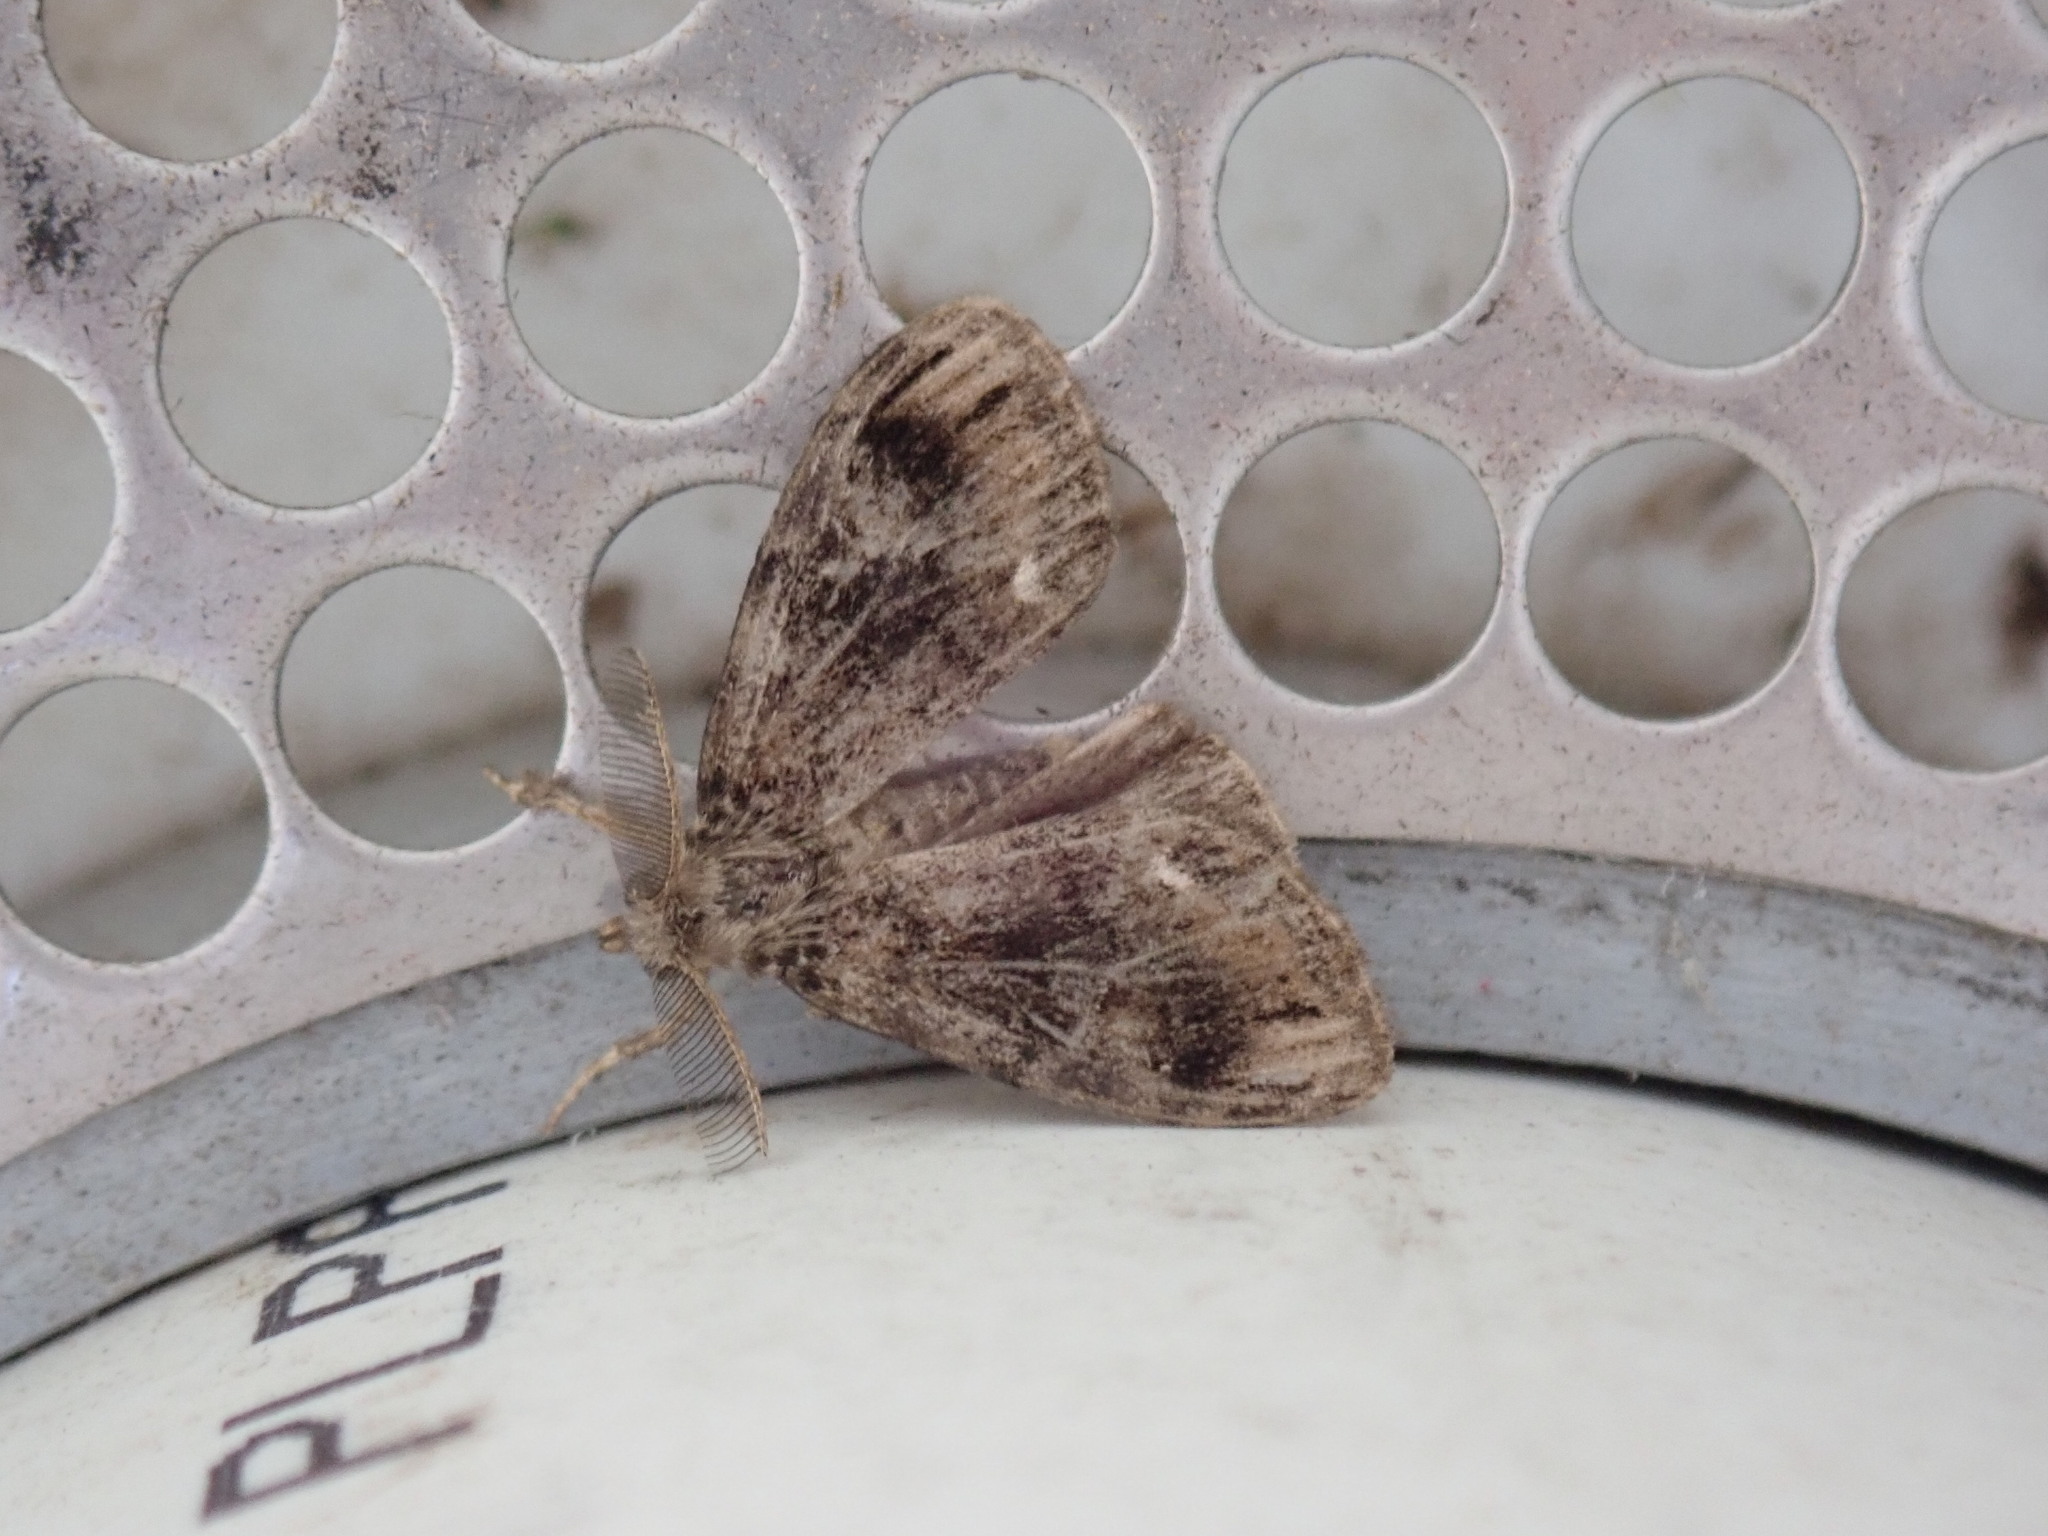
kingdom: Animalia
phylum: Arthropoda
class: Insecta
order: Lepidoptera
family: Erebidae
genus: Orgyia
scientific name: Orgyia definita
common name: Definite tussock moth
